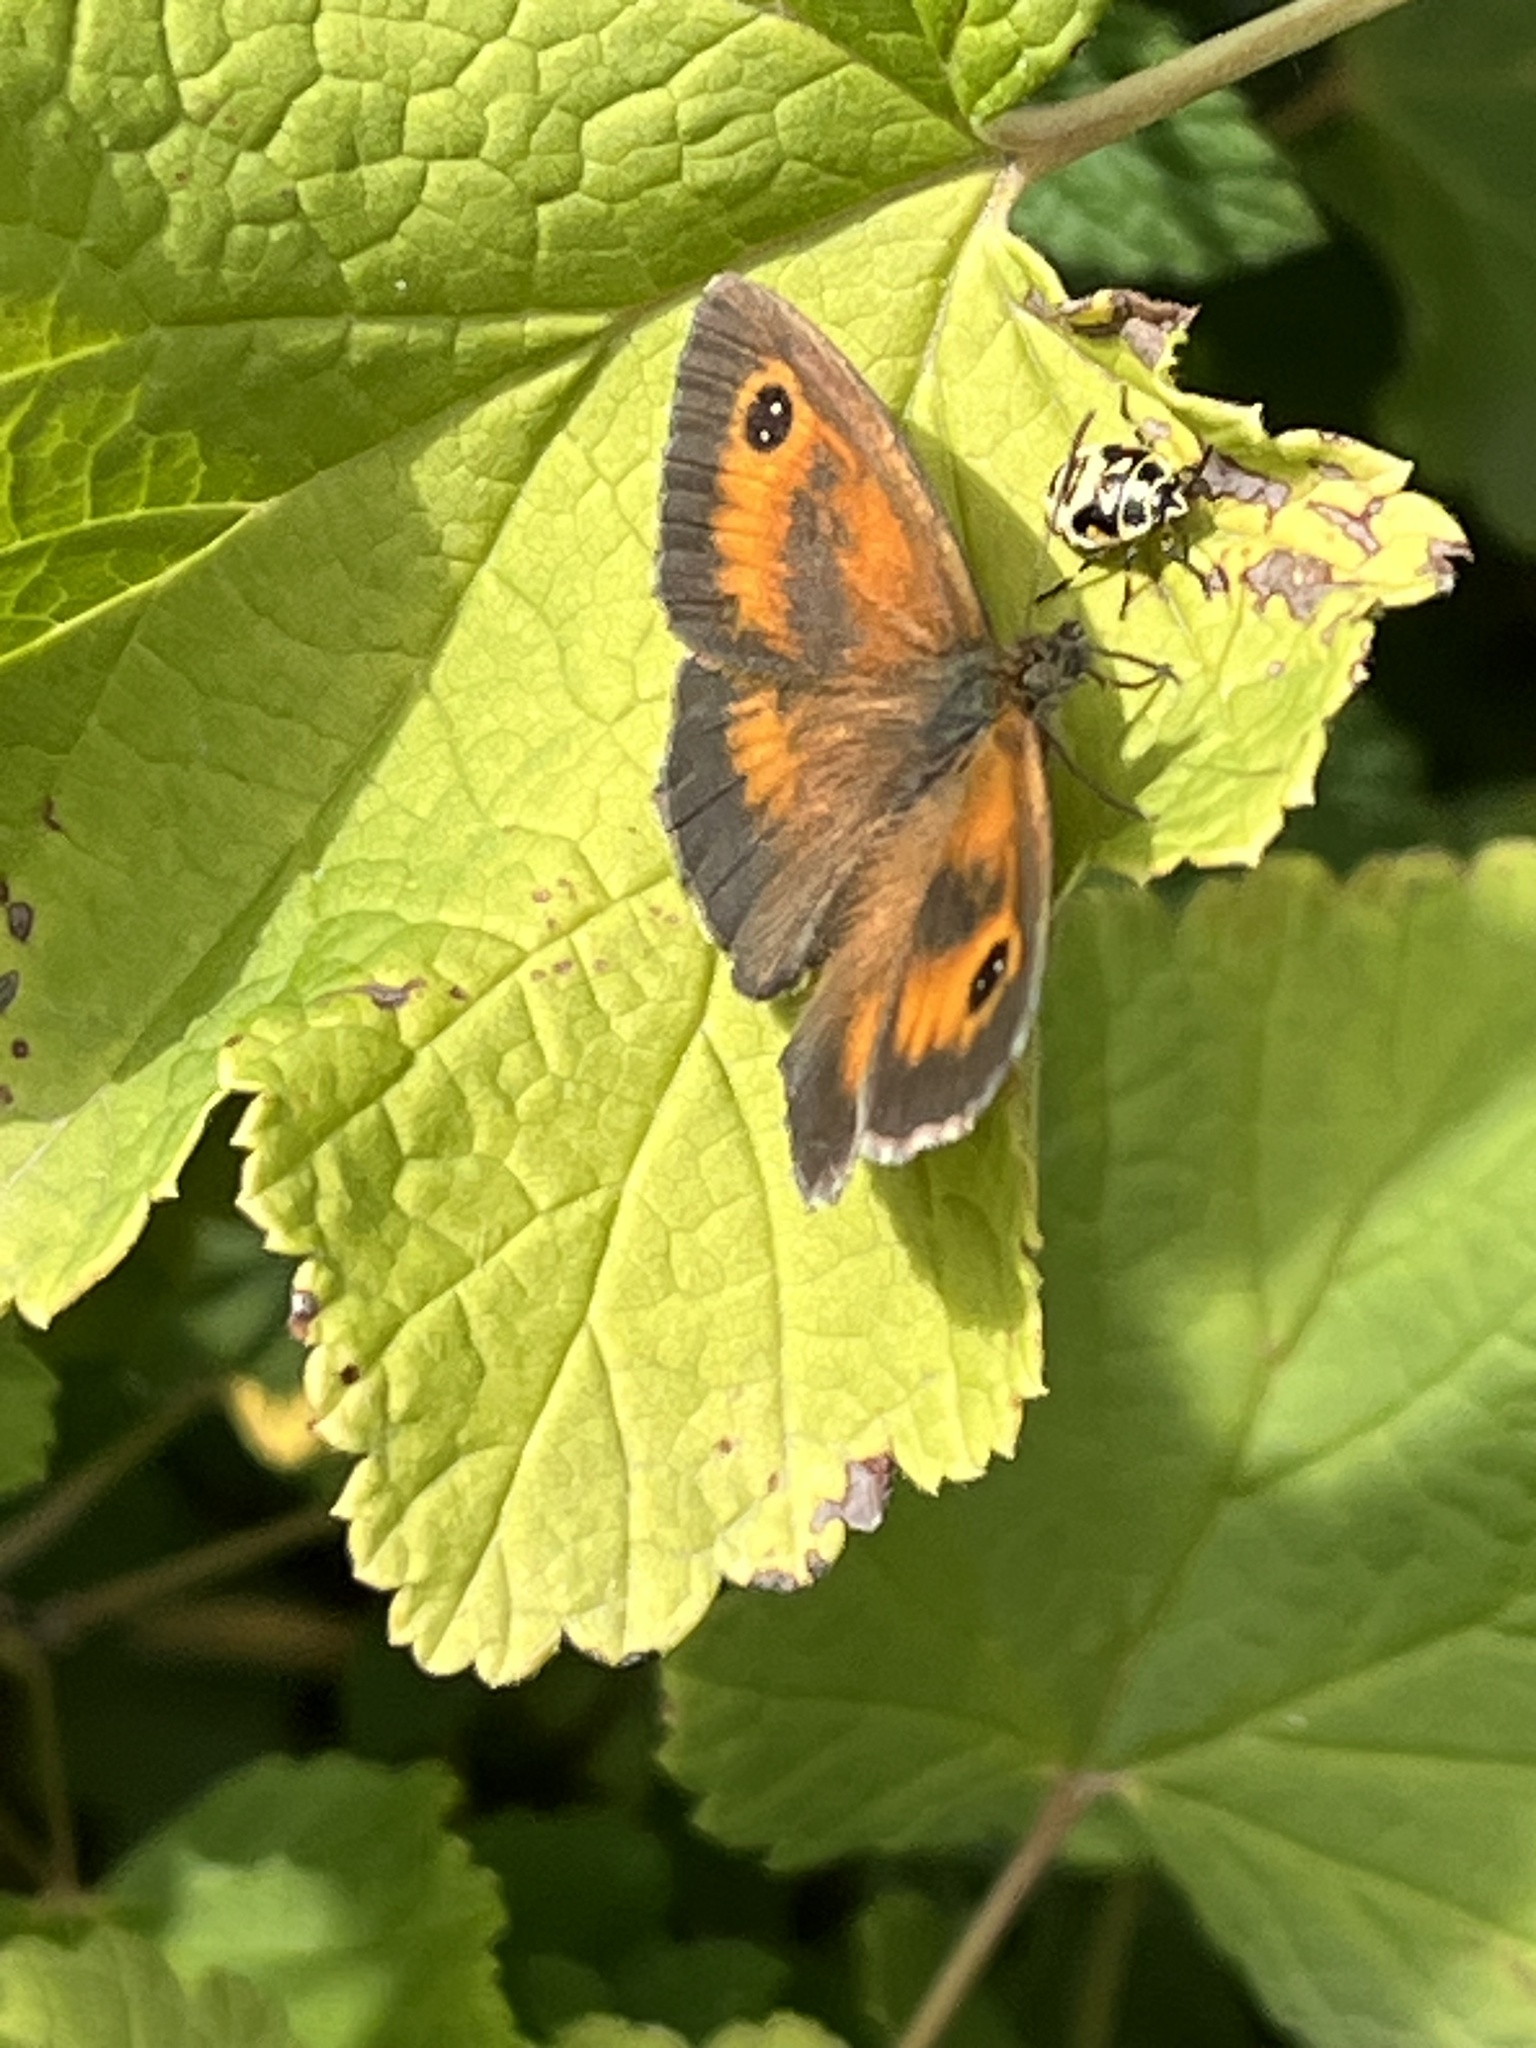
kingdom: Animalia
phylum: Arthropoda
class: Insecta
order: Lepidoptera
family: Nymphalidae
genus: Pyronia
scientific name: Pyronia tithonus
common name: Gatekeeper
